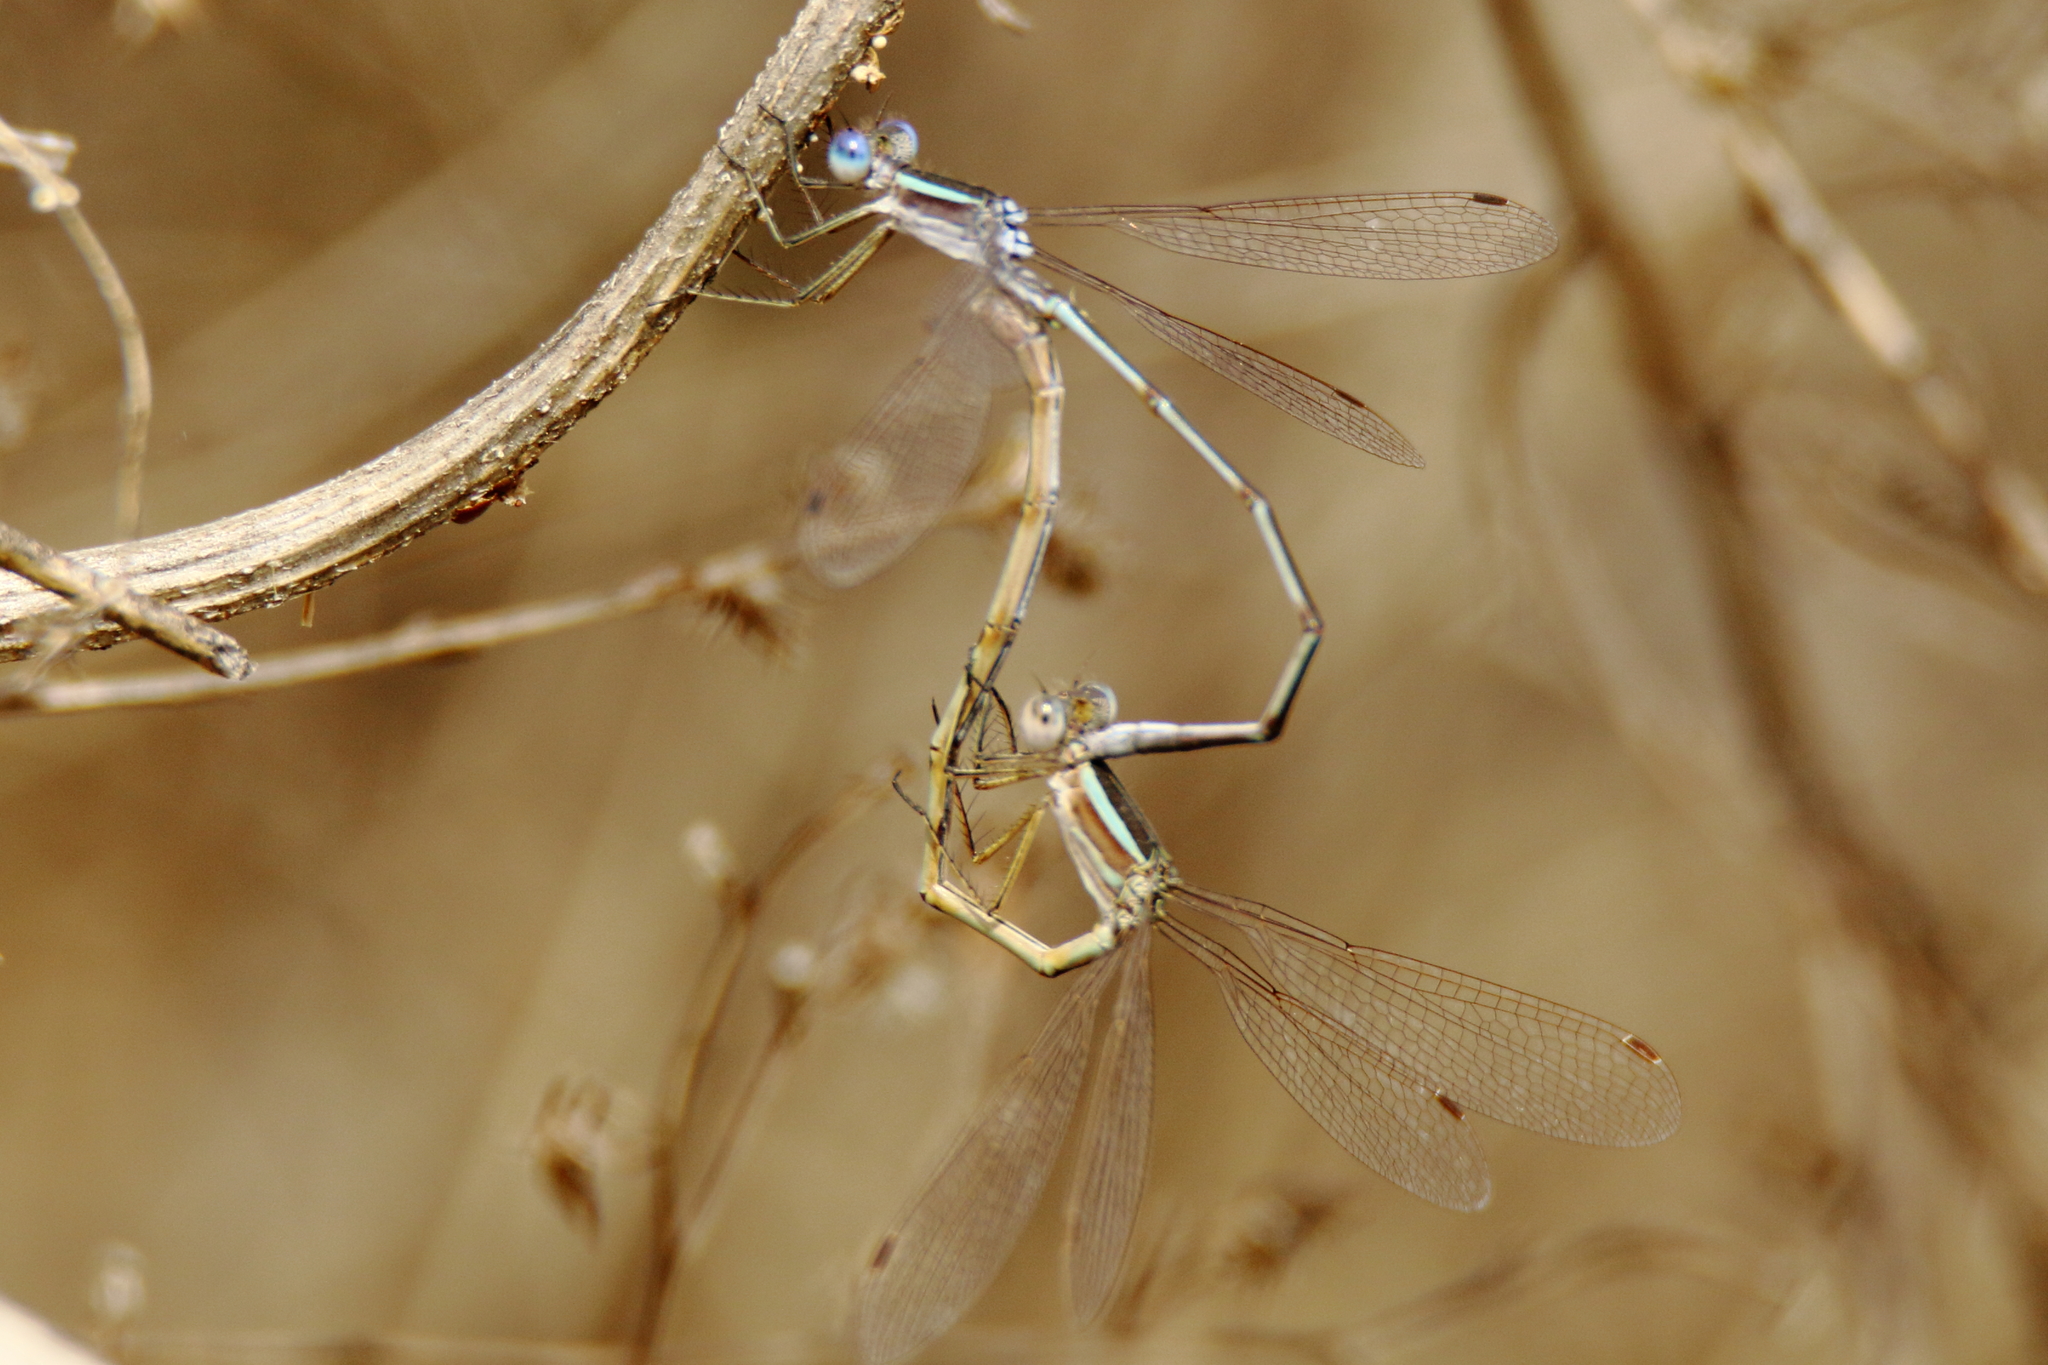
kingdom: Animalia
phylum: Arthropoda
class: Insecta
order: Odonata
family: Lestidae
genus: Lestes
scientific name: Lestes alacer
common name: Plateau spreadwing
